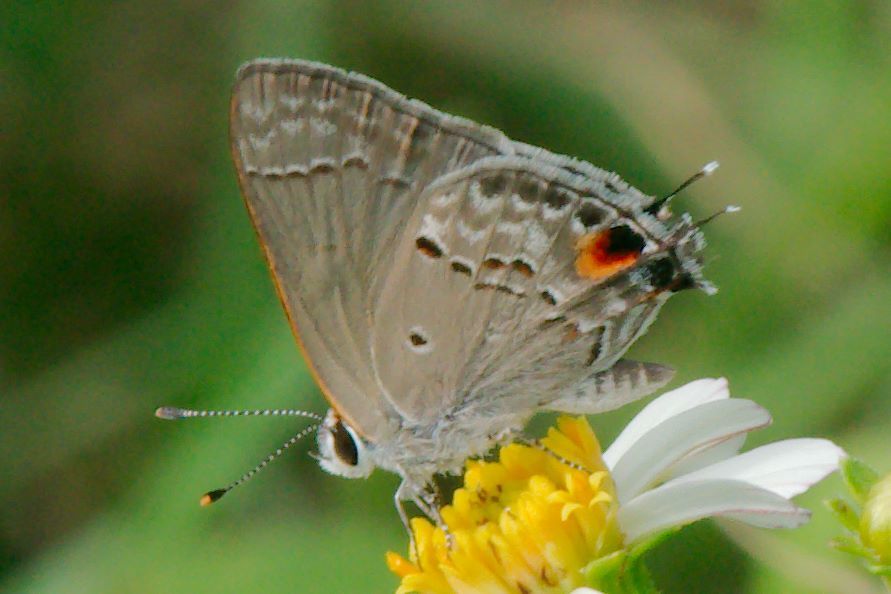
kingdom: Animalia
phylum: Arthropoda
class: Insecta
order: Lepidoptera
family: Lycaenidae
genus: Callicista
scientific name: Callicista columella
